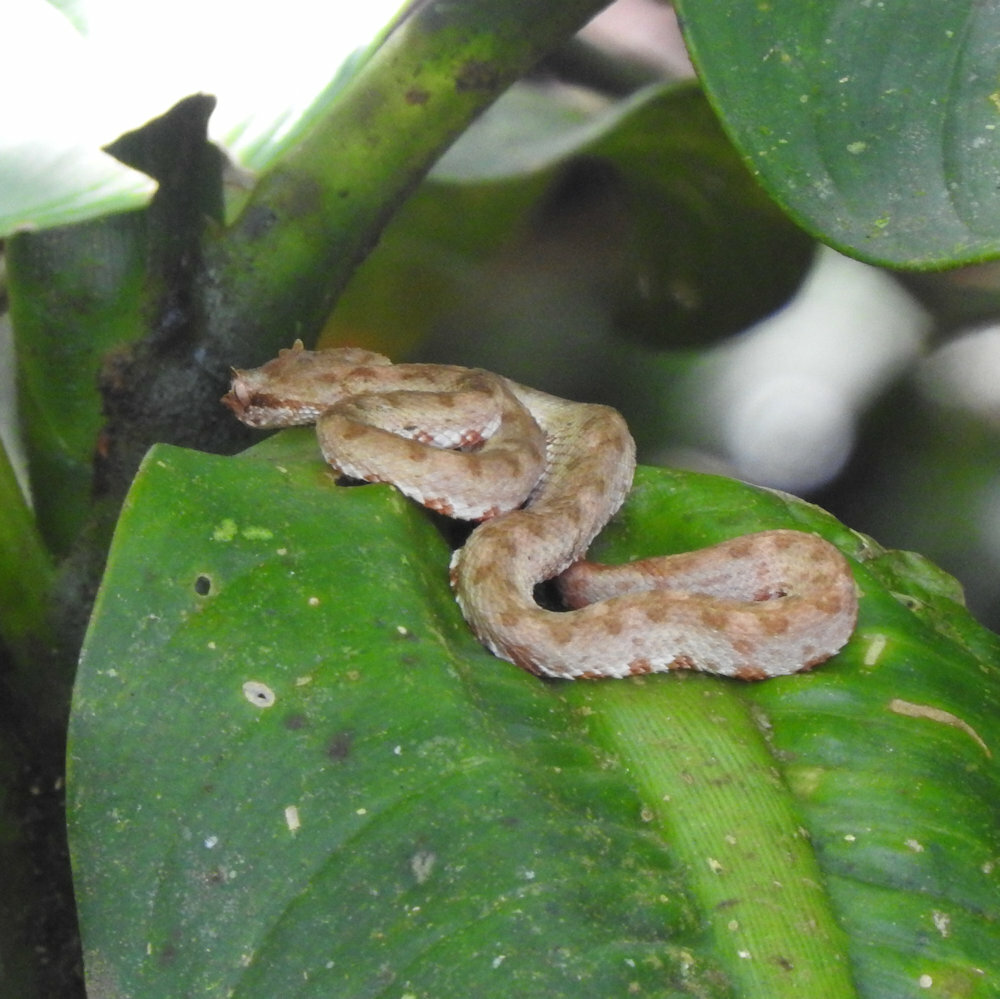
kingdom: Animalia
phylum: Chordata
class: Squamata
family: Viperidae
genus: Bothriechis
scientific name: Bothriechis schlegelii
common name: Eyelash viper
